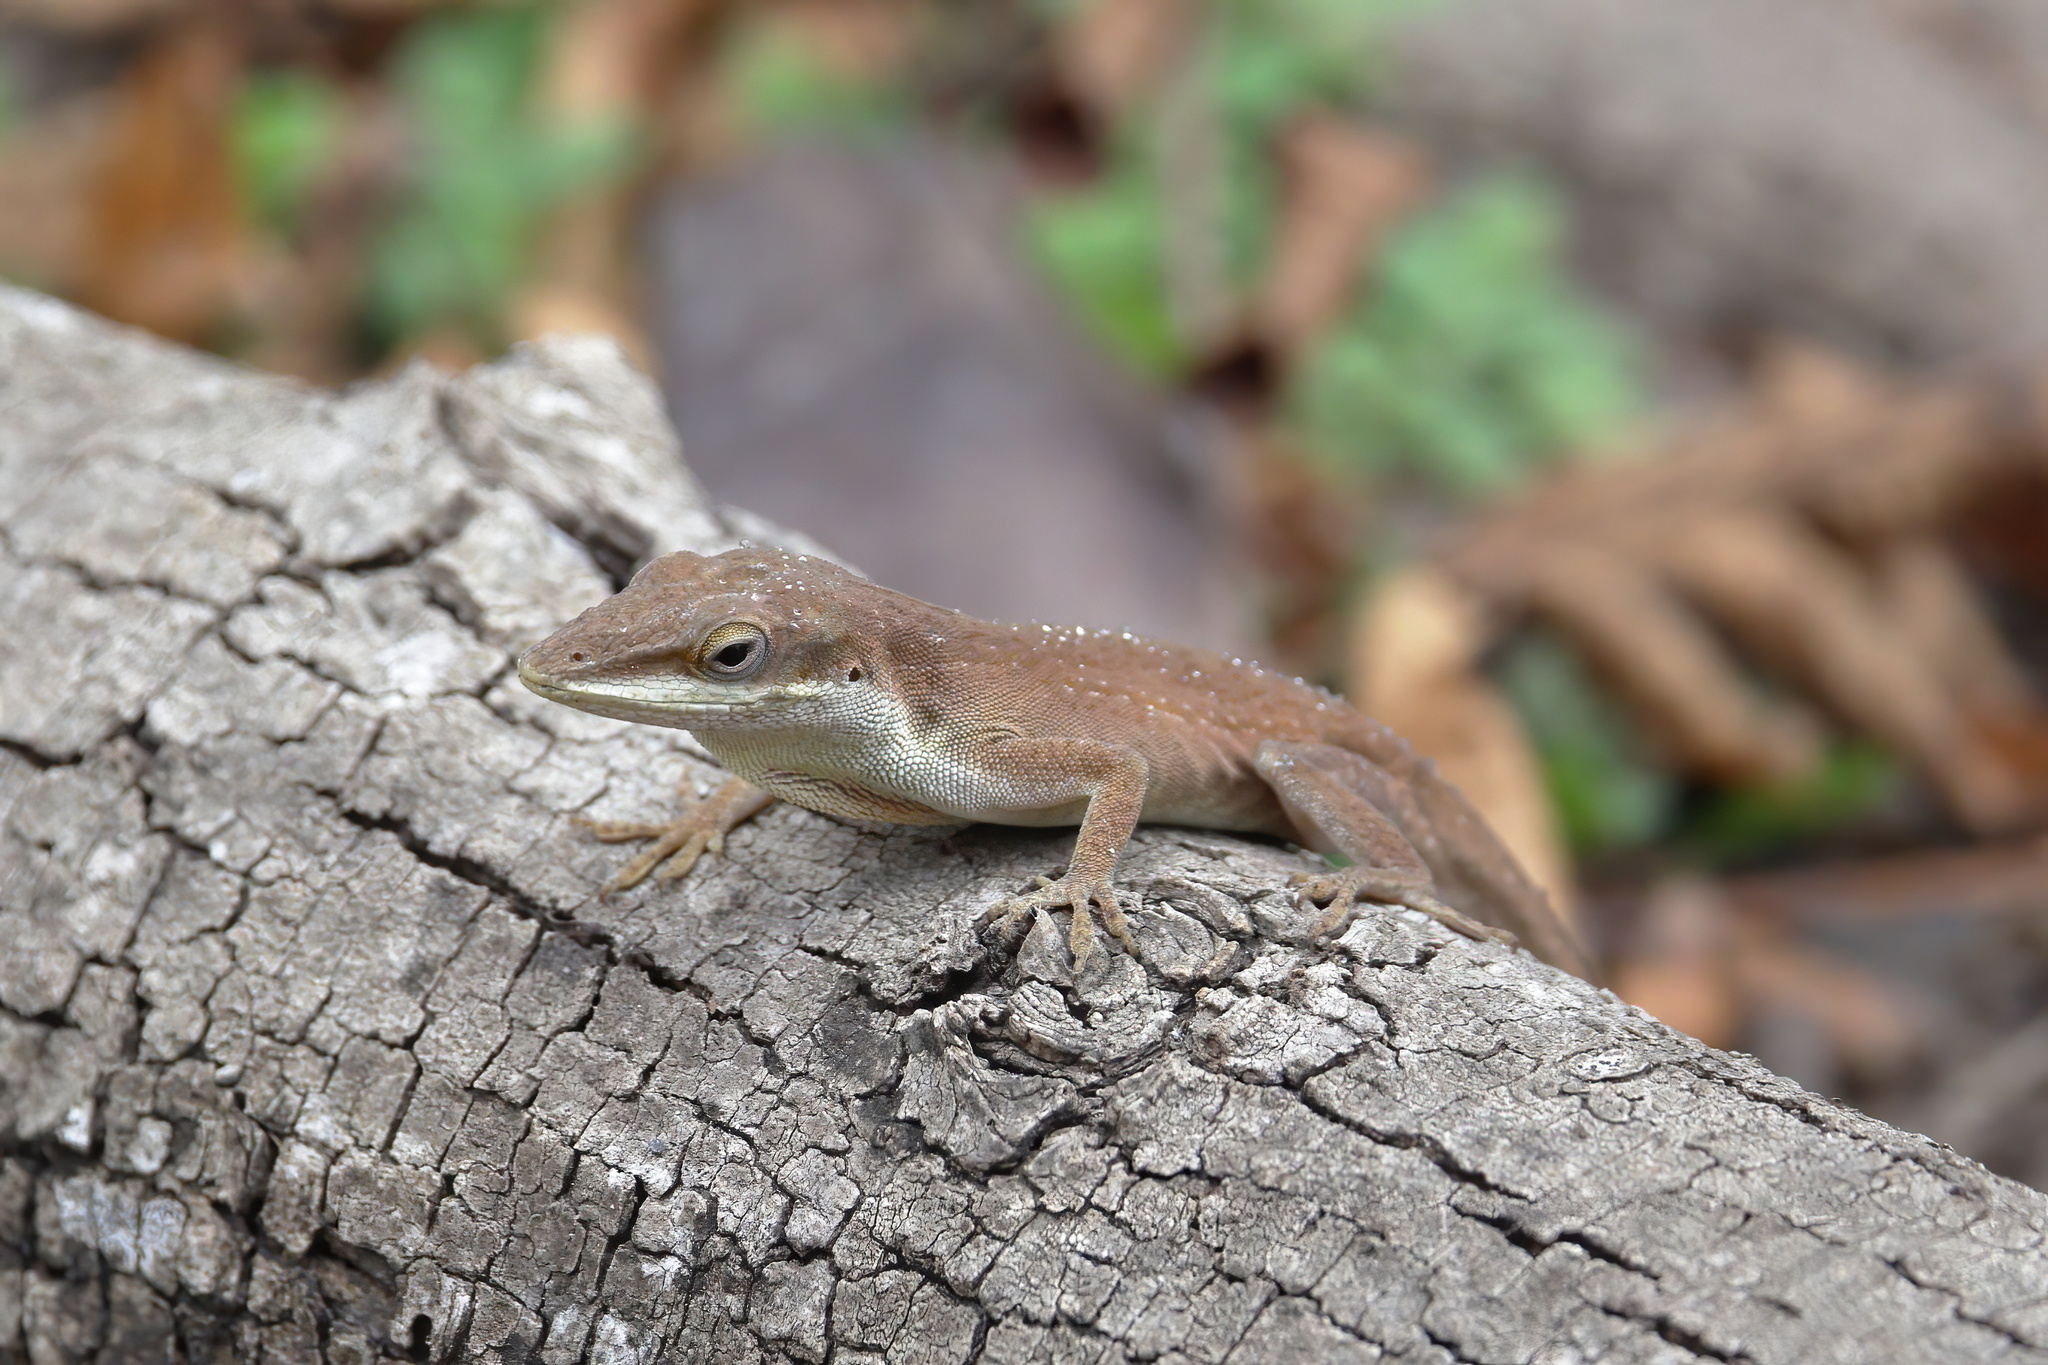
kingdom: Animalia
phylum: Chordata
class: Squamata
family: Dactyloidae
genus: Anolis
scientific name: Anolis carolinensis
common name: Green anole
